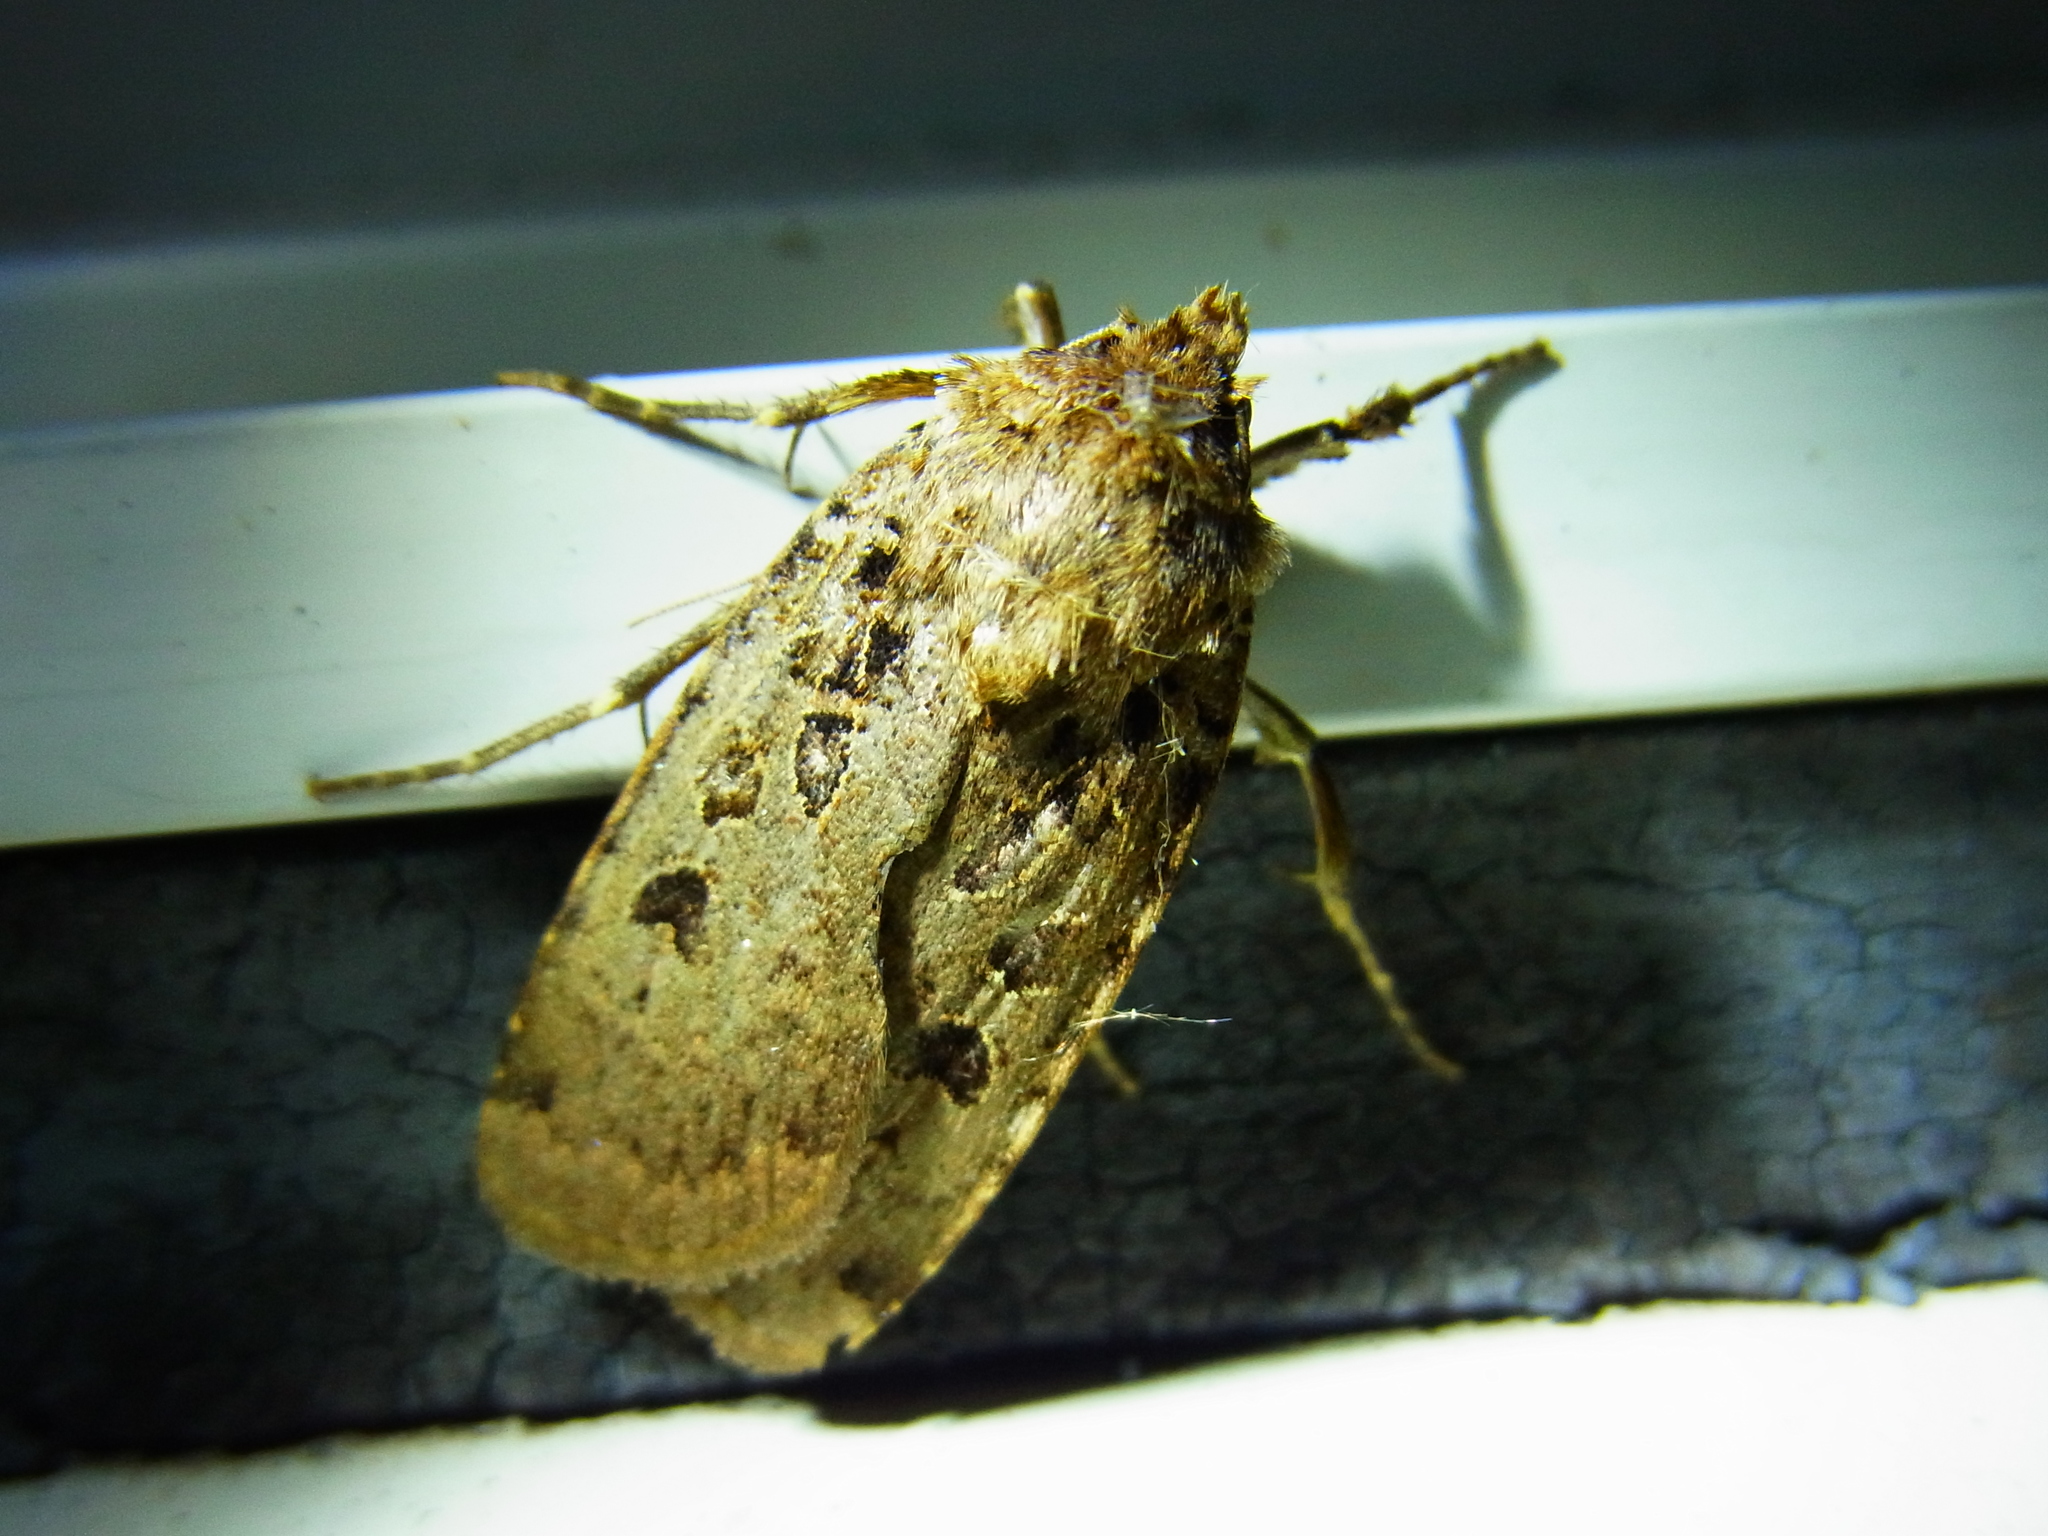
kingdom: Animalia
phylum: Arthropoda
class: Insecta
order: Lepidoptera
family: Noctuidae
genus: Hermonassa
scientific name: Hermonassa cecilia
